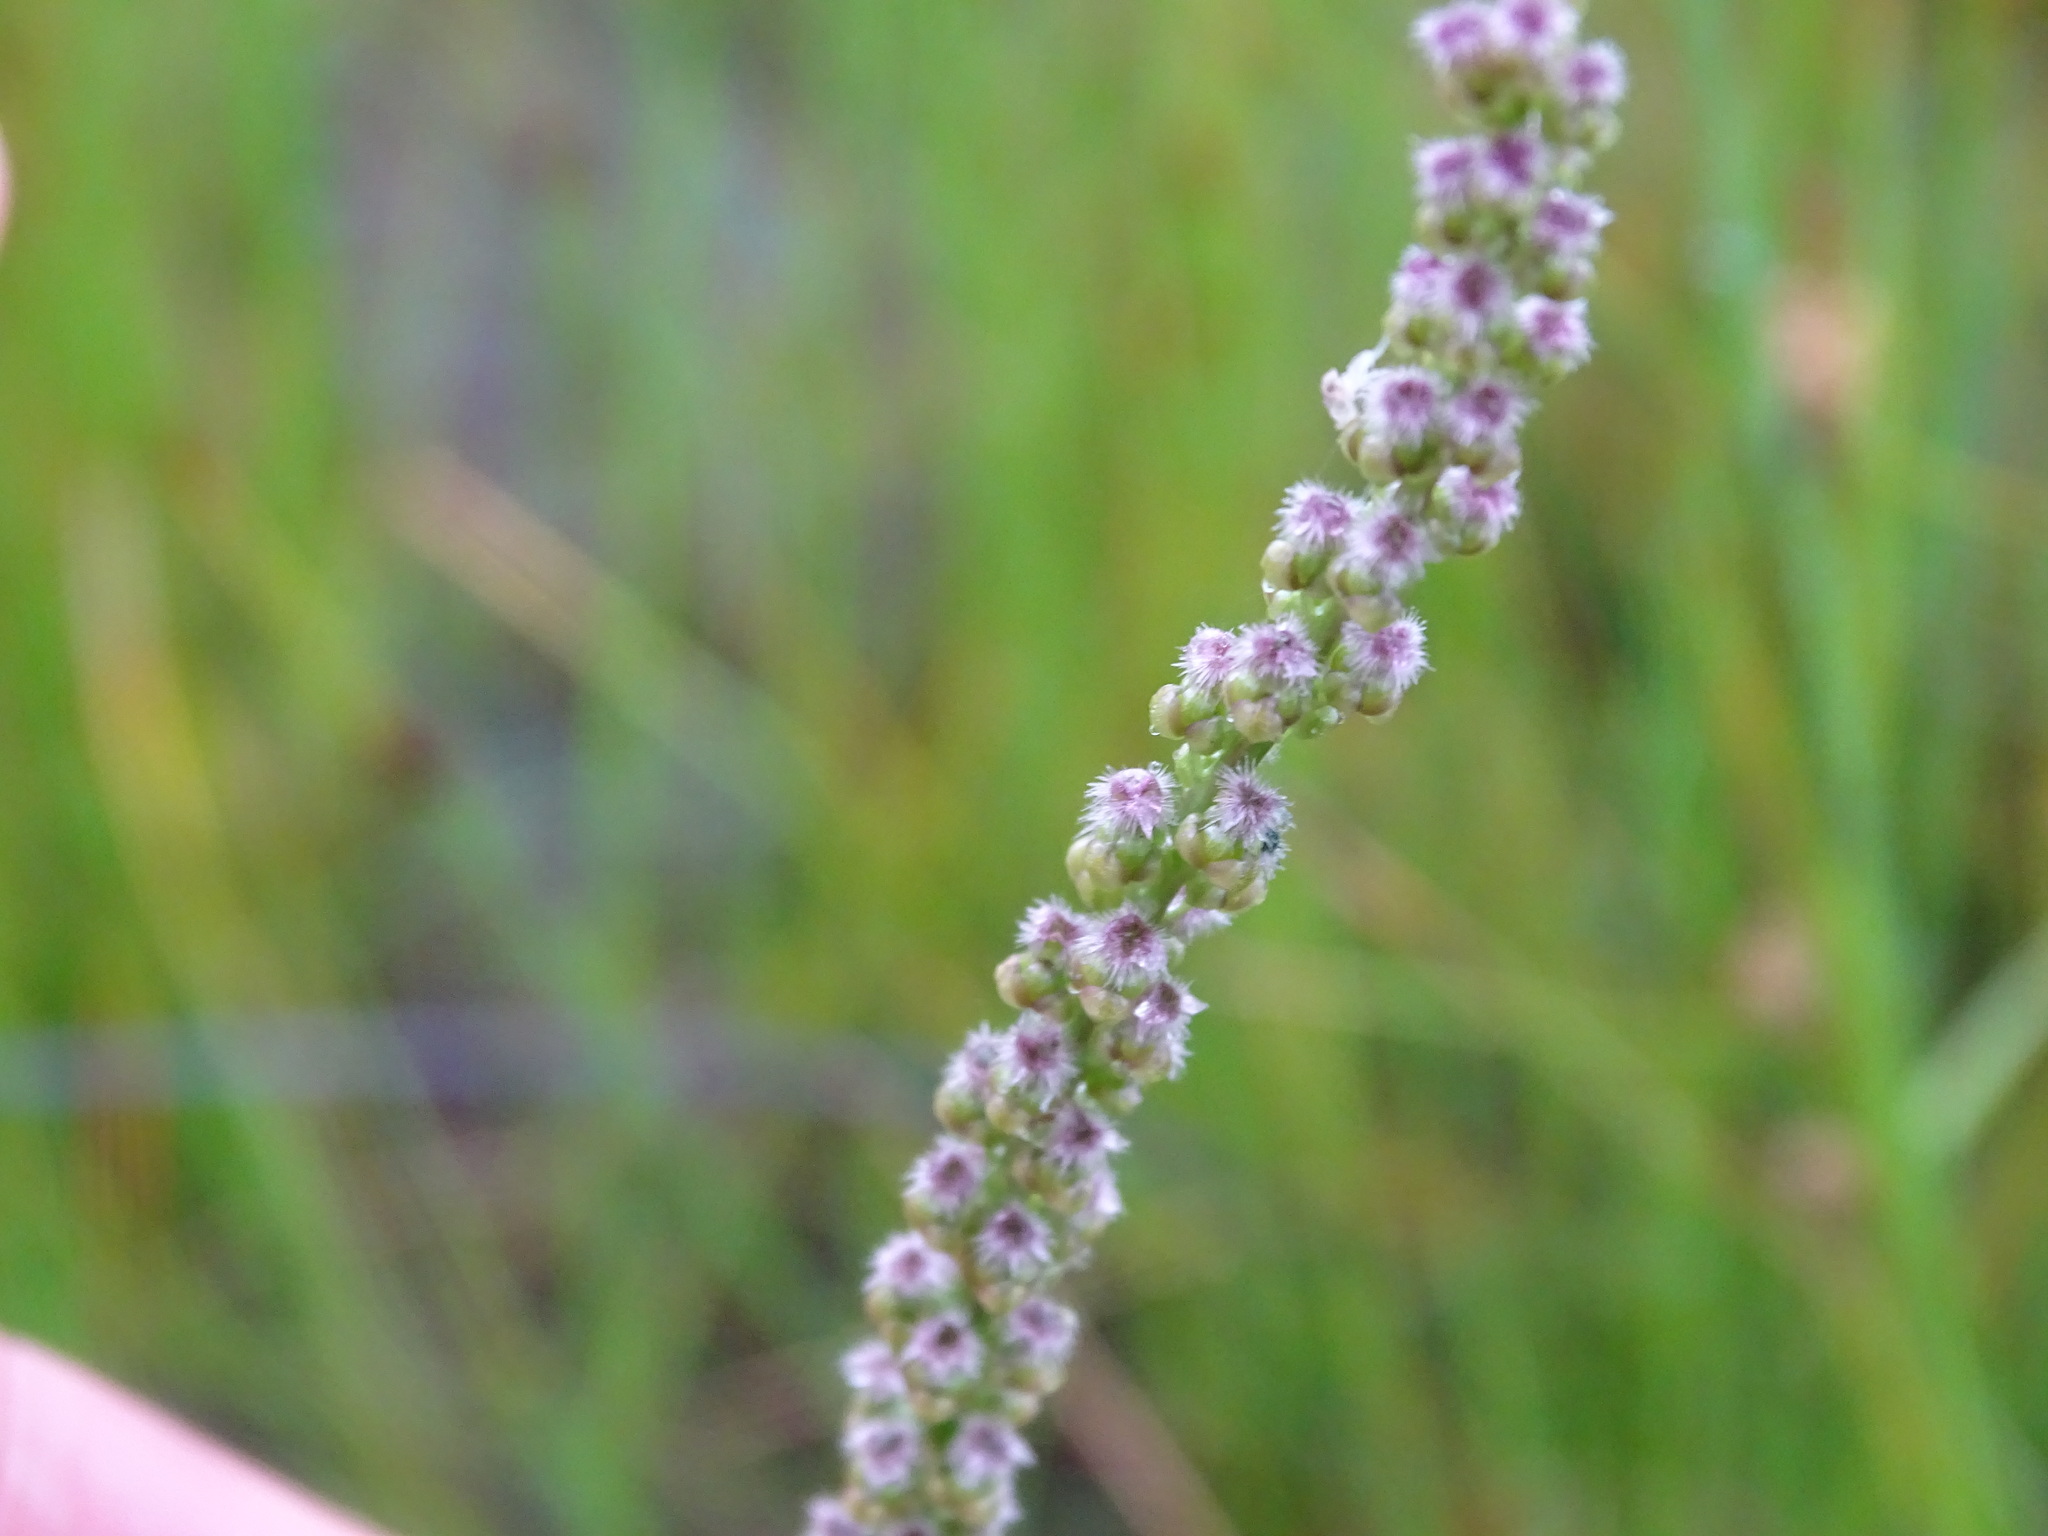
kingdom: Plantae
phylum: Tracheophyta
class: Liliopsida
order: Alismatales
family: Juncaginaceae
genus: Triglochin
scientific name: Triglochin maritima
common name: Sea arrowgrass
